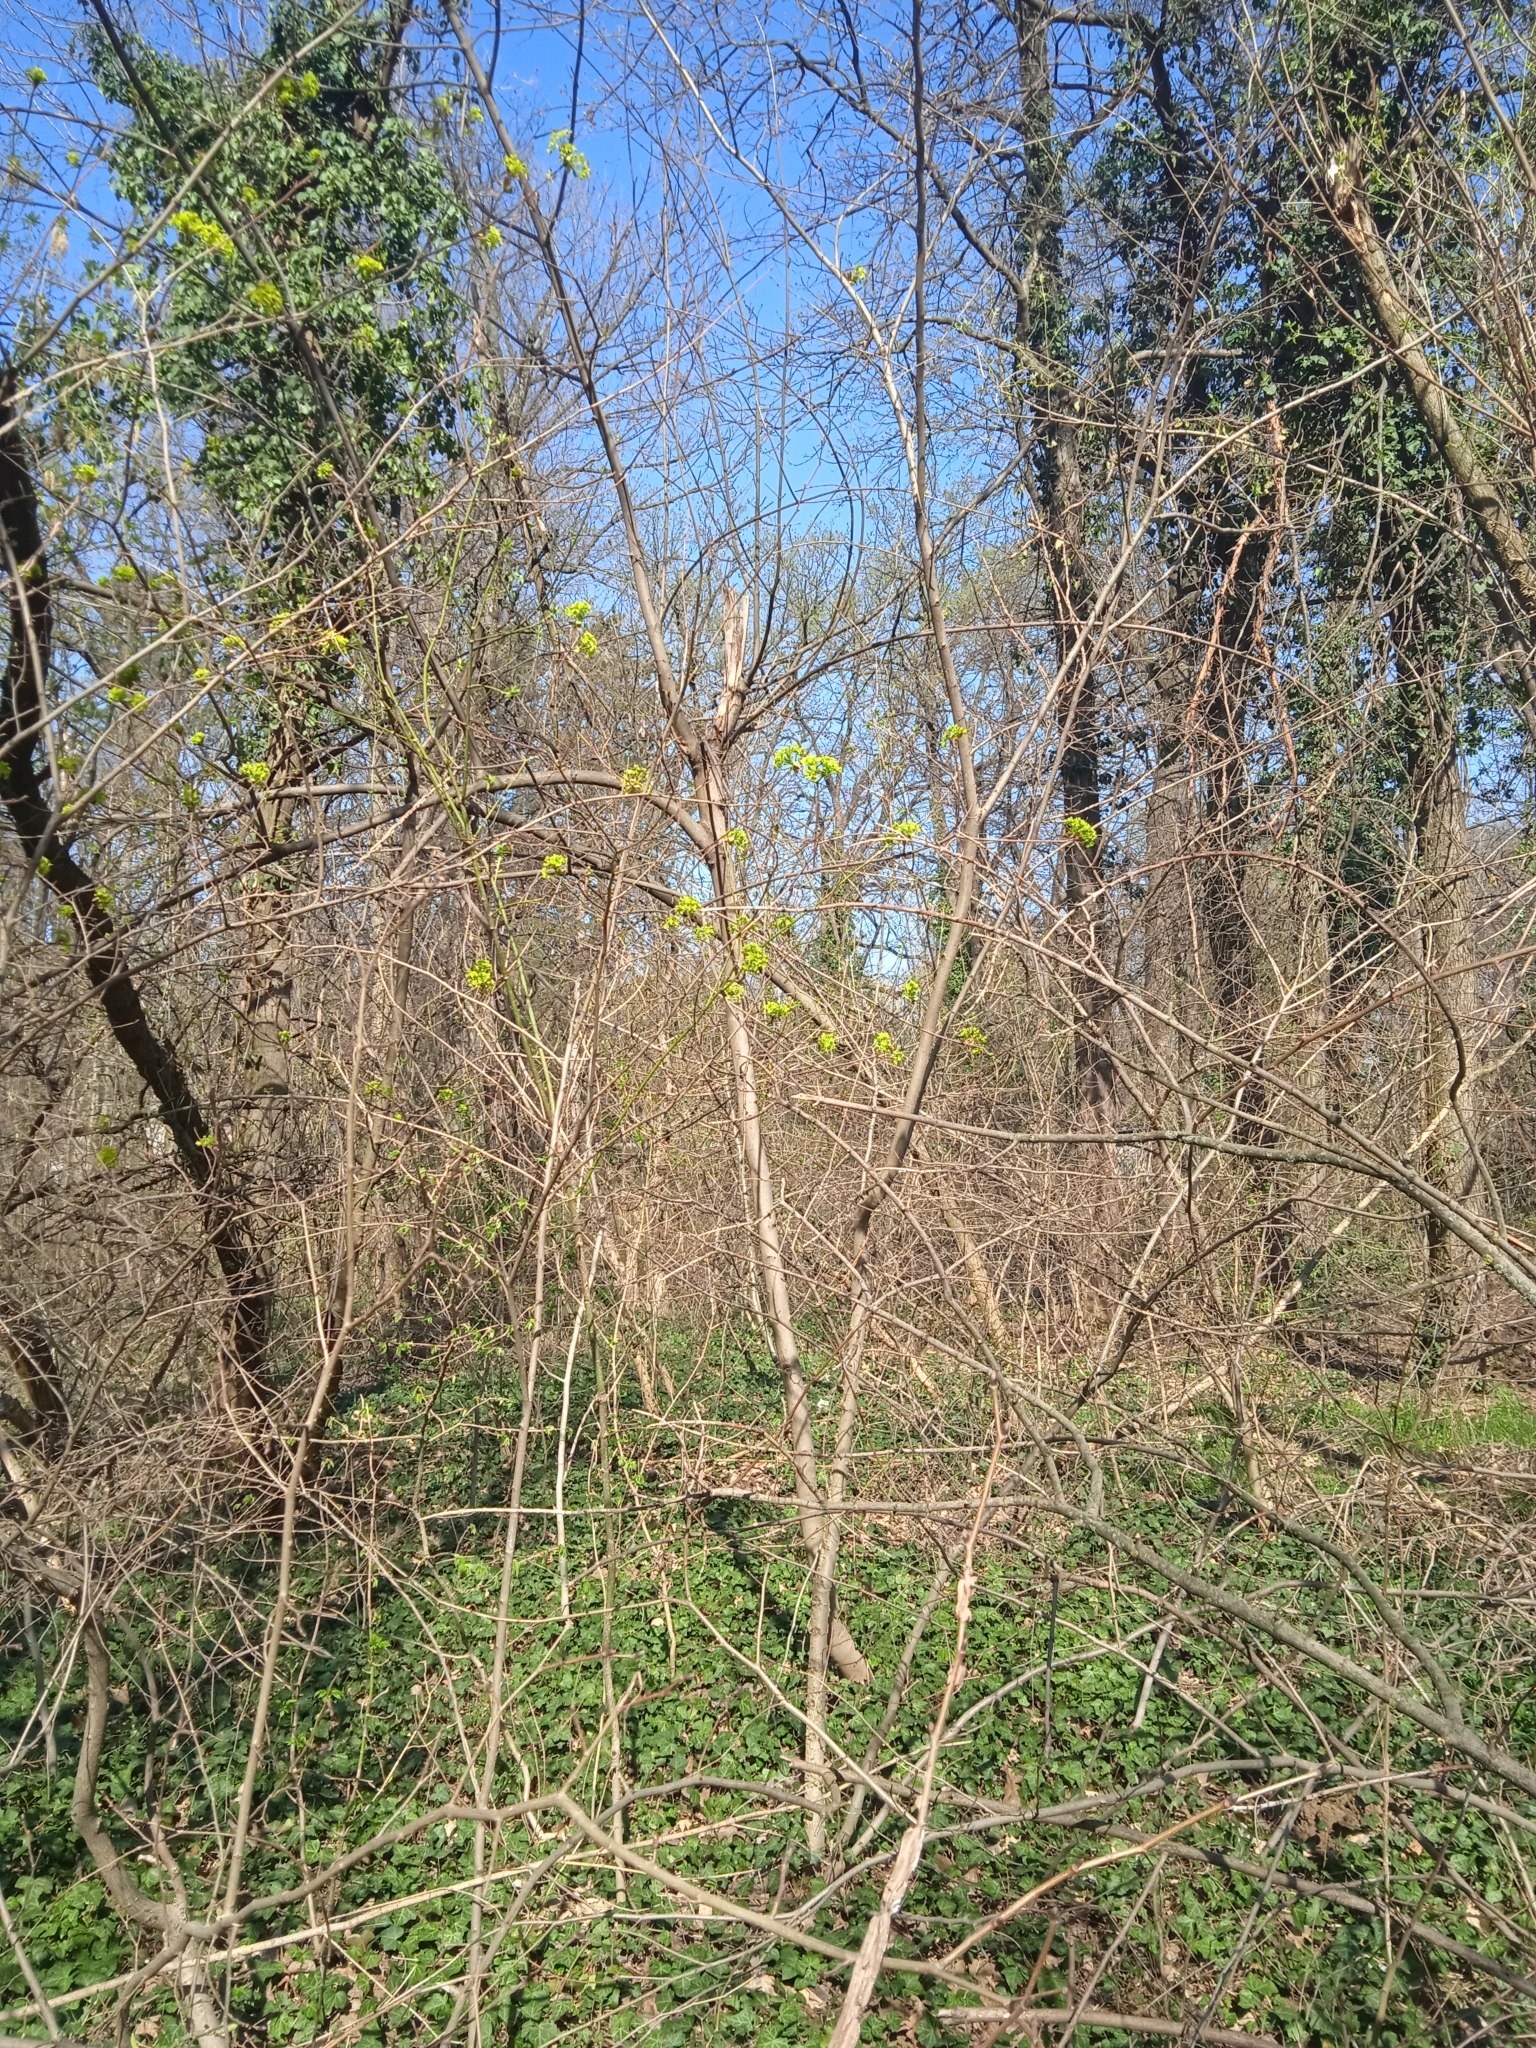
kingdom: Plantae
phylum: Tracheophyta
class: Magnoliopsida
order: Sapindales
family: Sapindaceae
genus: Acer
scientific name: Acer platanoides
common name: Norway maple
